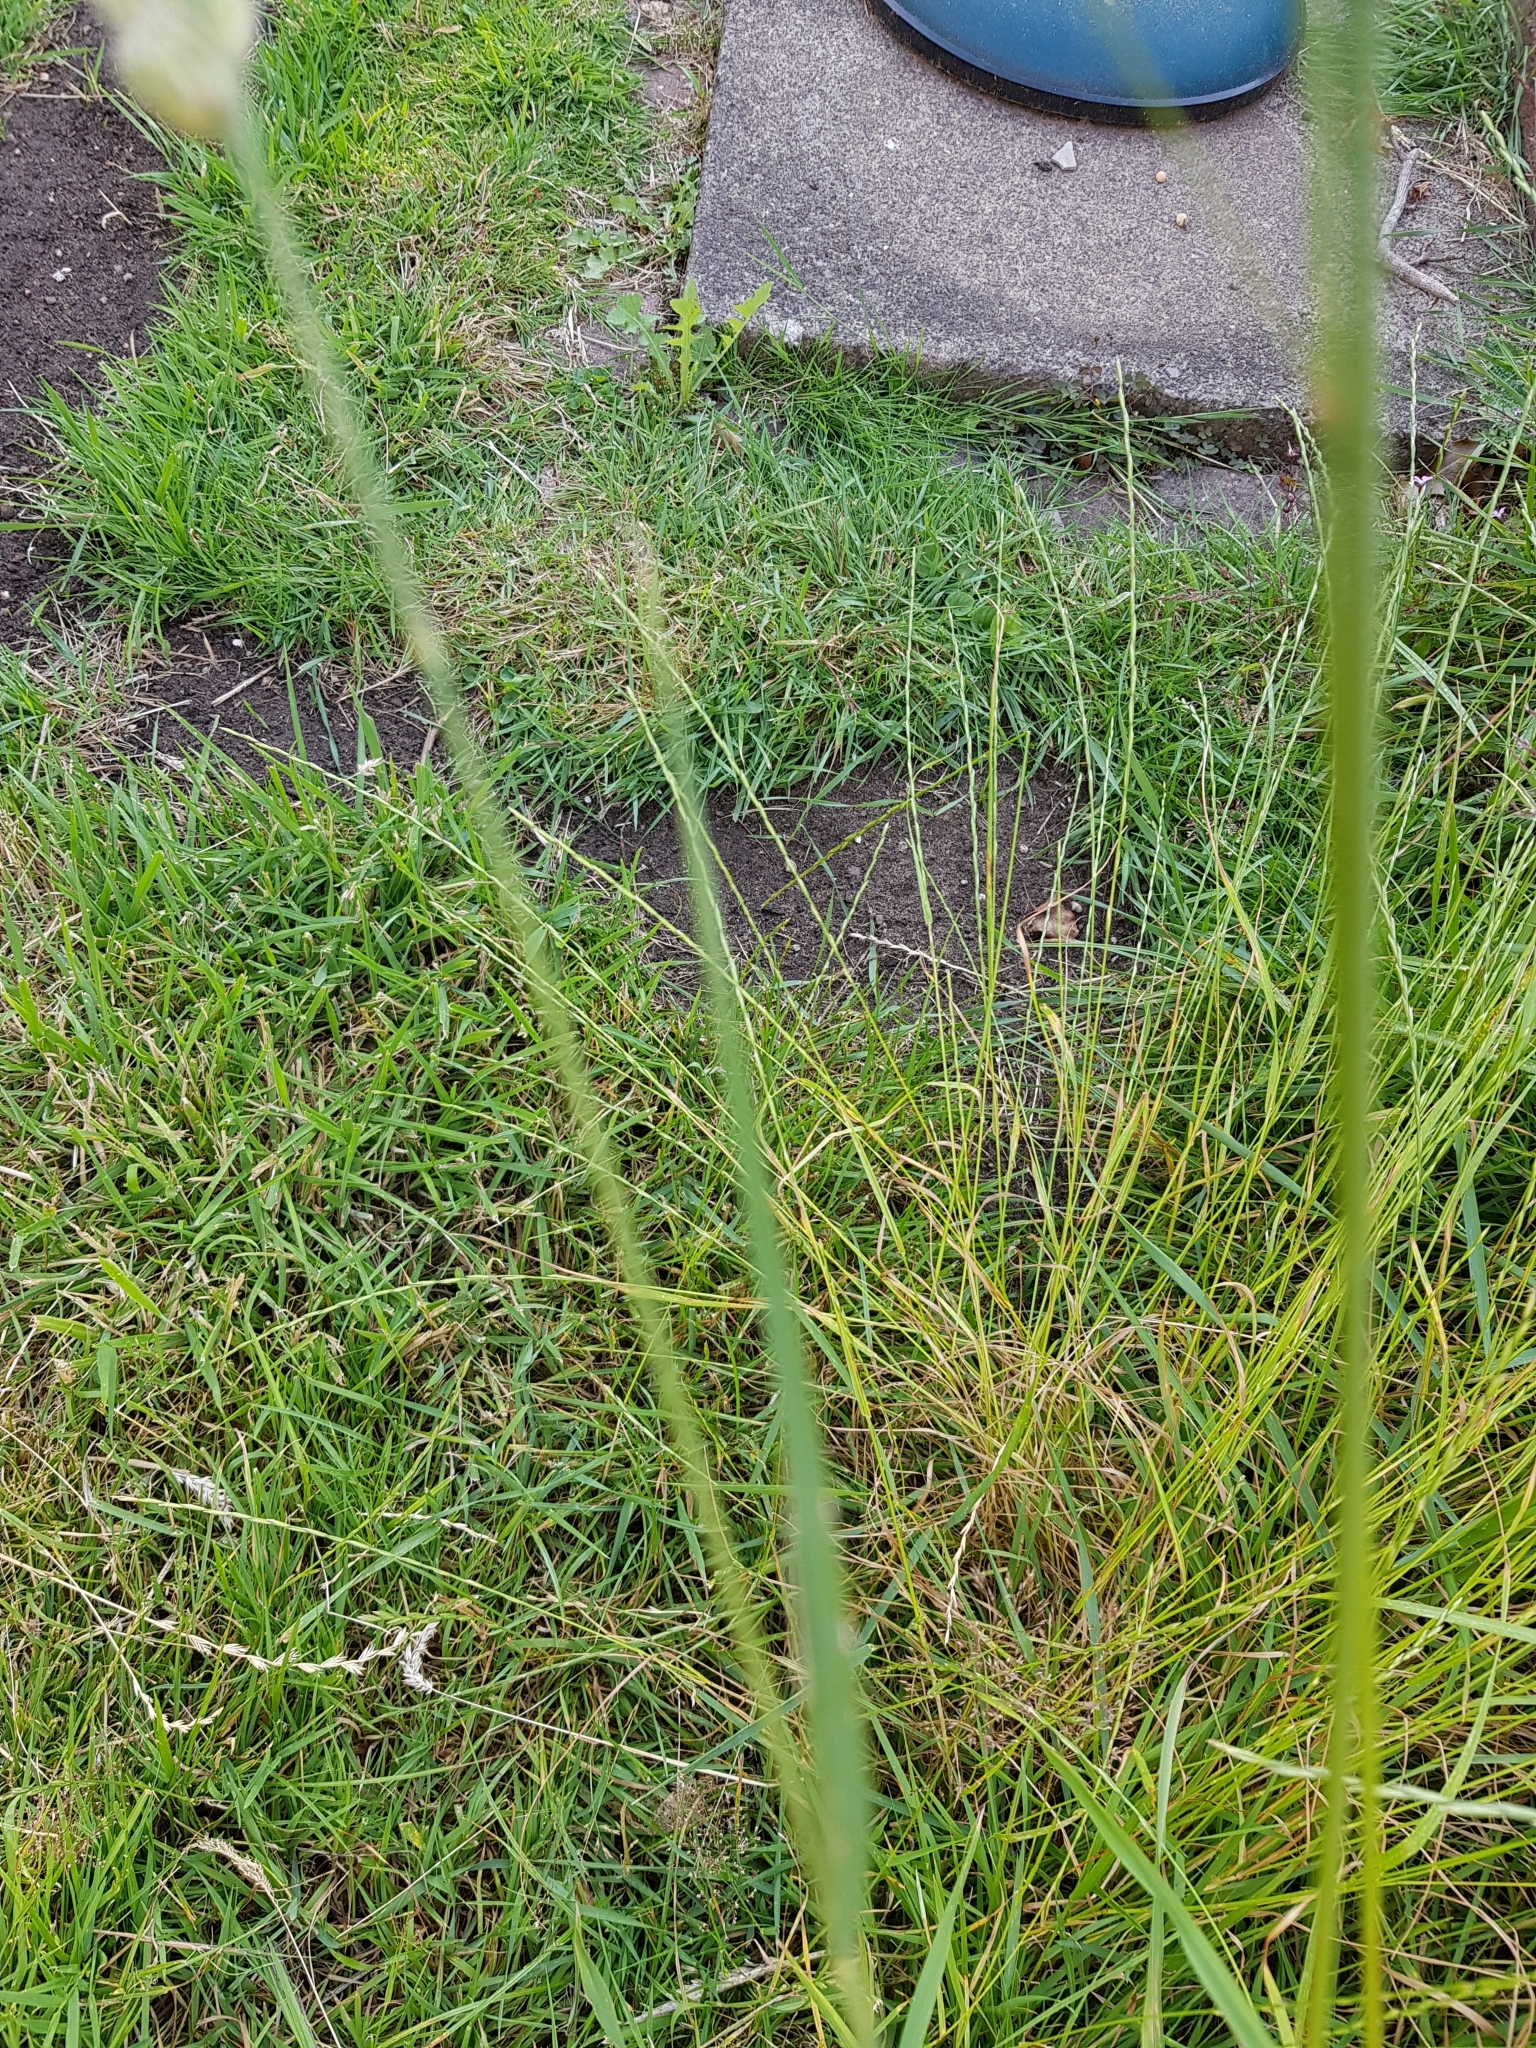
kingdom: Plantae
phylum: Tracheophyta
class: Liliopsida
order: Poales
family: Poaceae
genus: Dactylis
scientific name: Dactylis glomerata
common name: Orchardgrass
